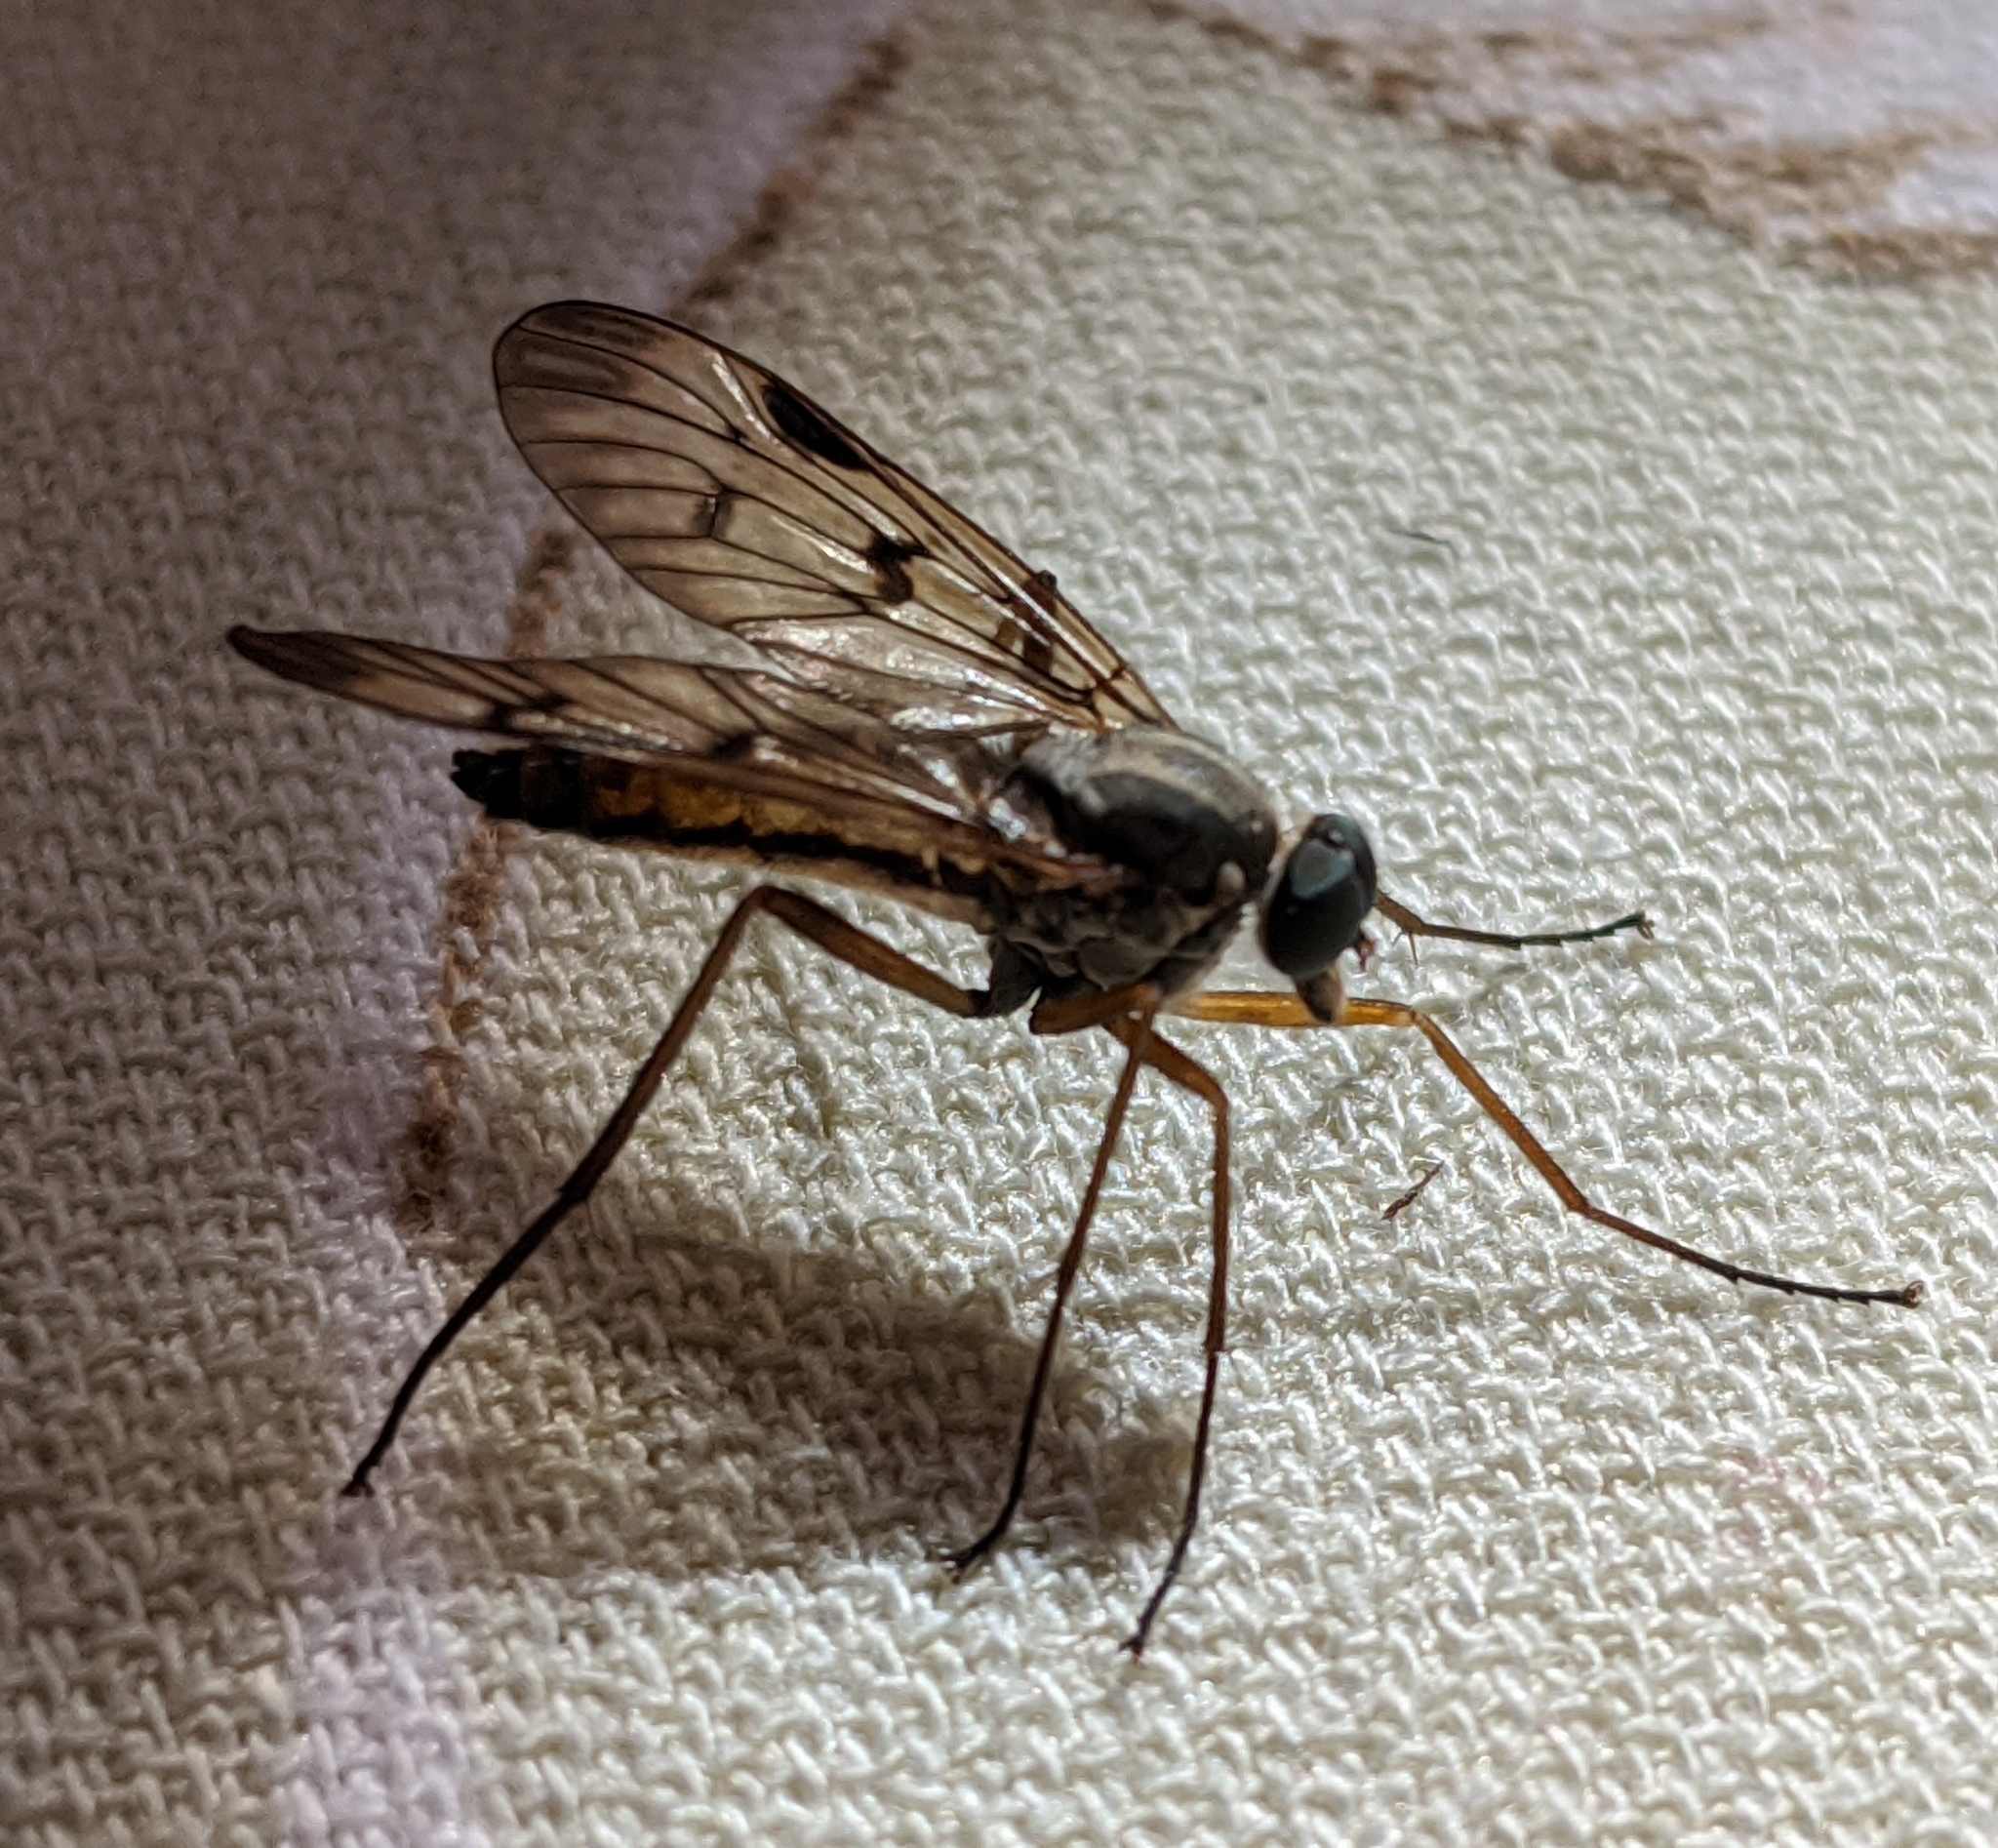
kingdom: Animalia
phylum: Arthropoda
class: Insecta
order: Diptera
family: Rhagionidae
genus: Rhagio
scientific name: Rhagio scolopacea
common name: Downlooker snipefly
